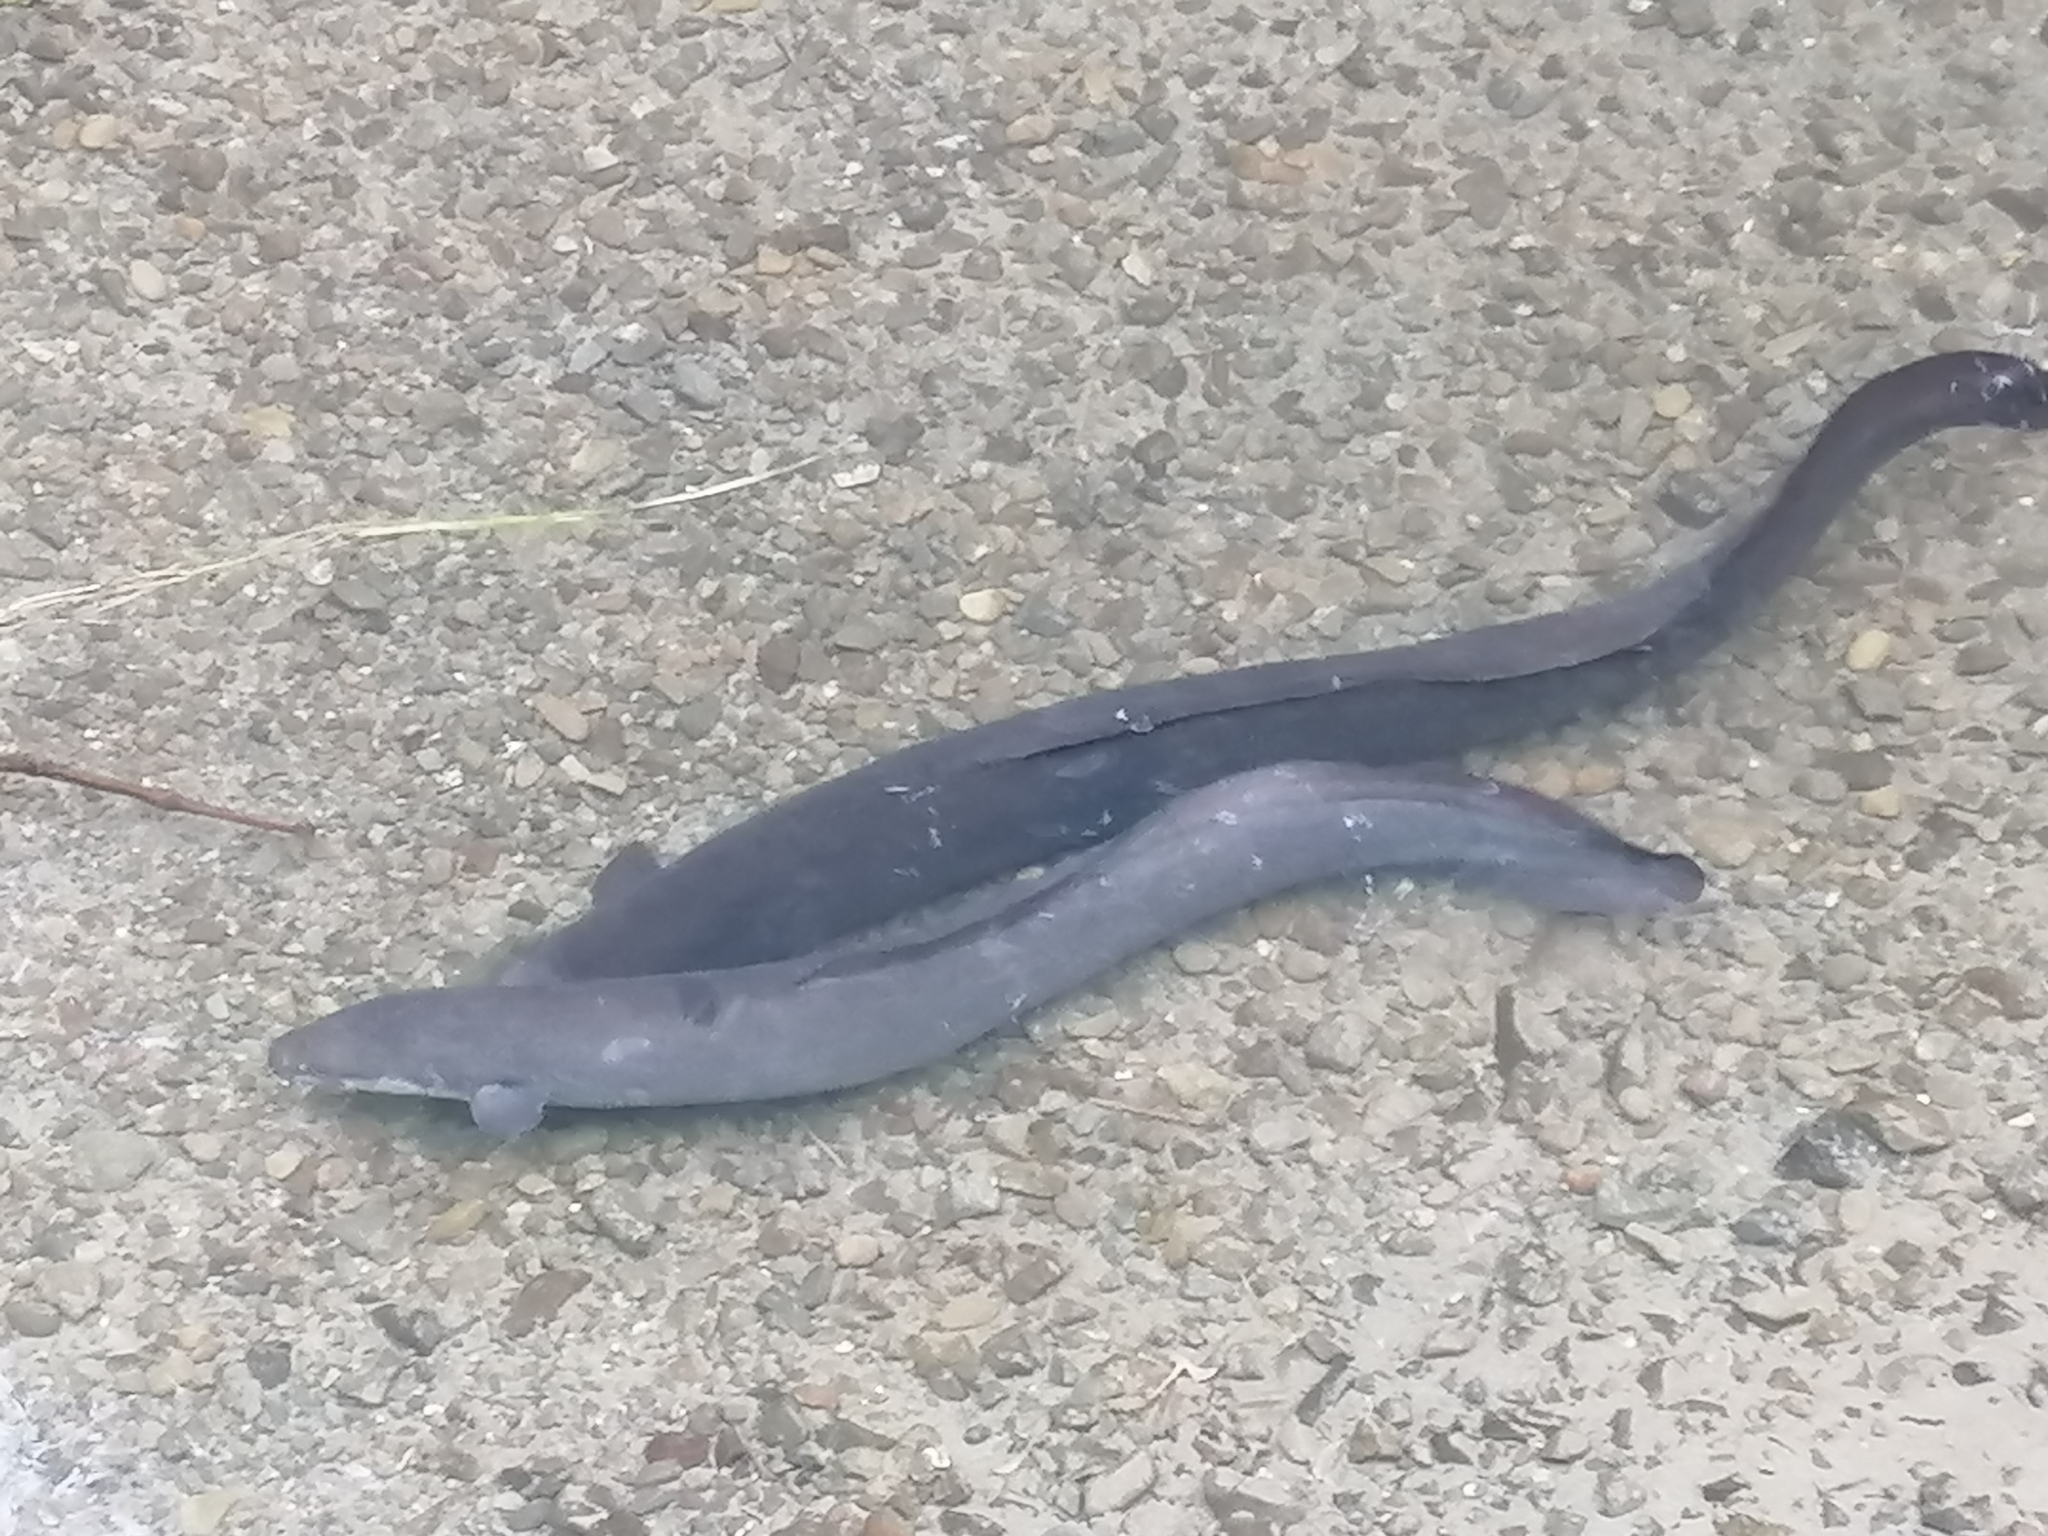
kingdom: Animalia
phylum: Chordata
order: Anguilliformes
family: Anguillidae
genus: Anguilla
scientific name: Anguilla dieffenbachii
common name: New zealand longfin eel
